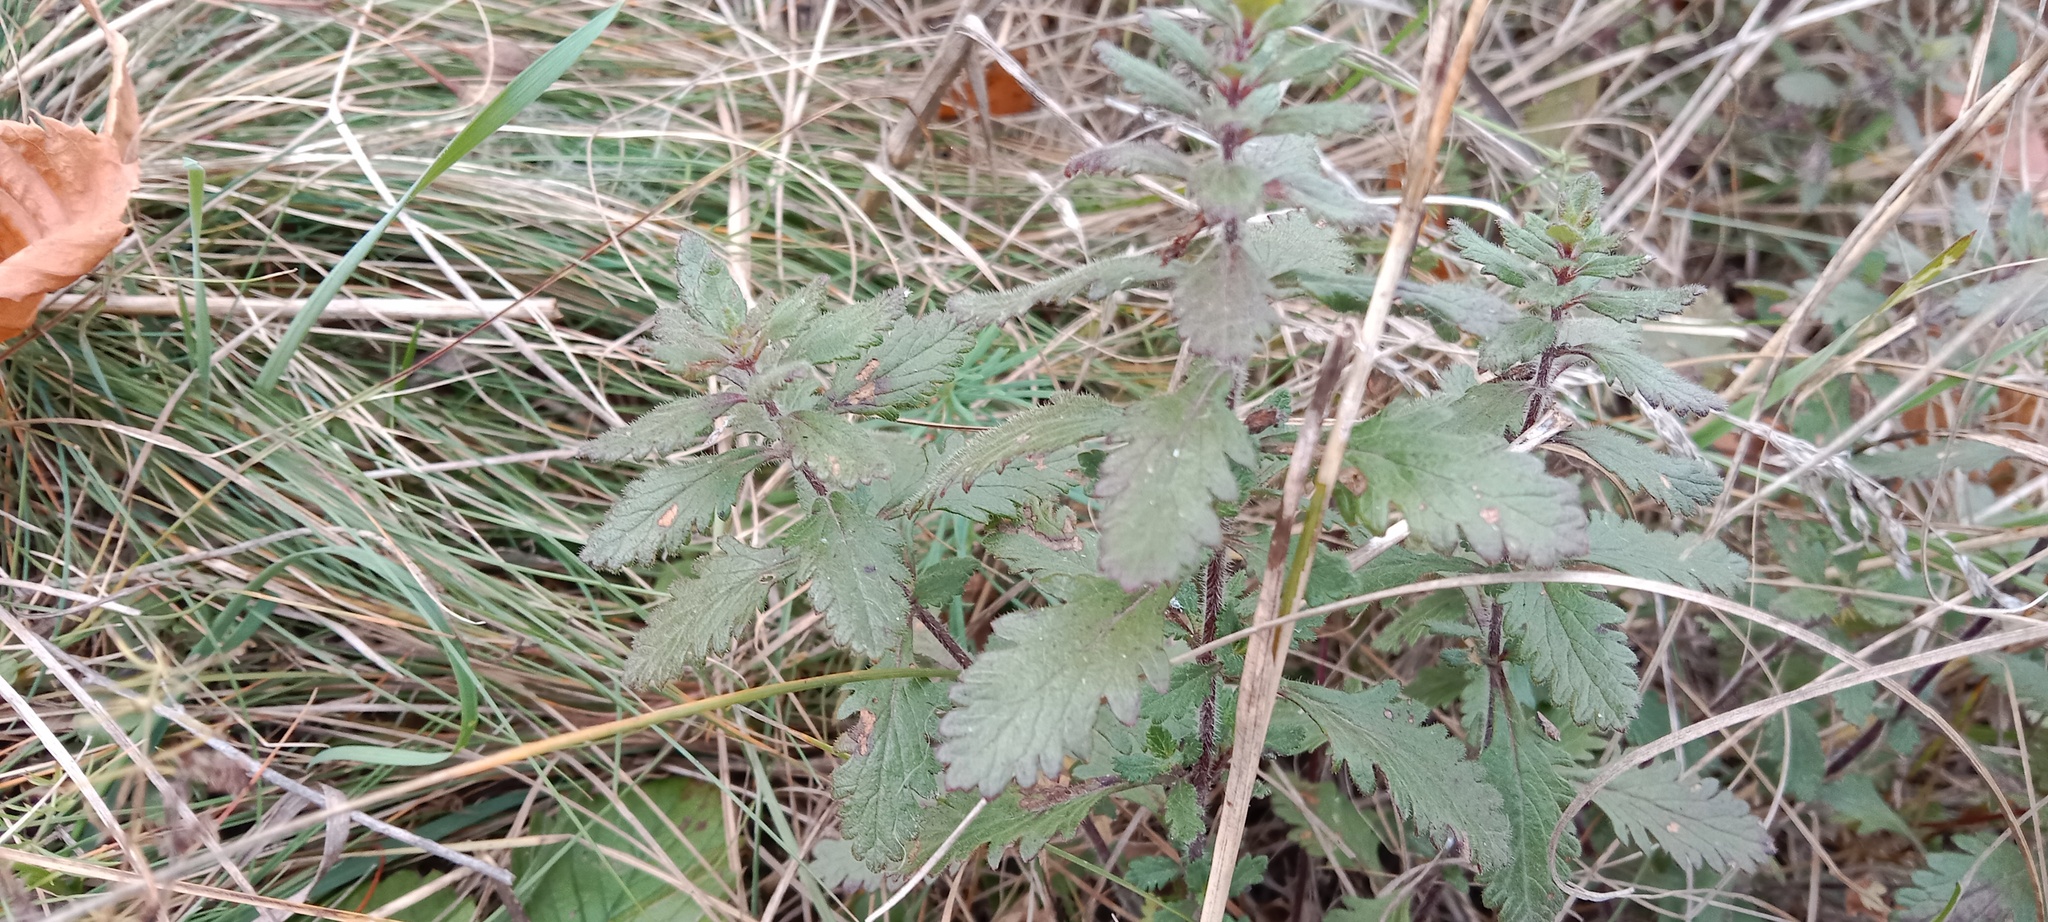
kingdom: Plantae
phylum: Tracheophyta
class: Magnoliopsida
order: Lamiales
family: Lamiaceae
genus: Teucrium
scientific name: Teucrium chamaedrys
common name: Wall germander
